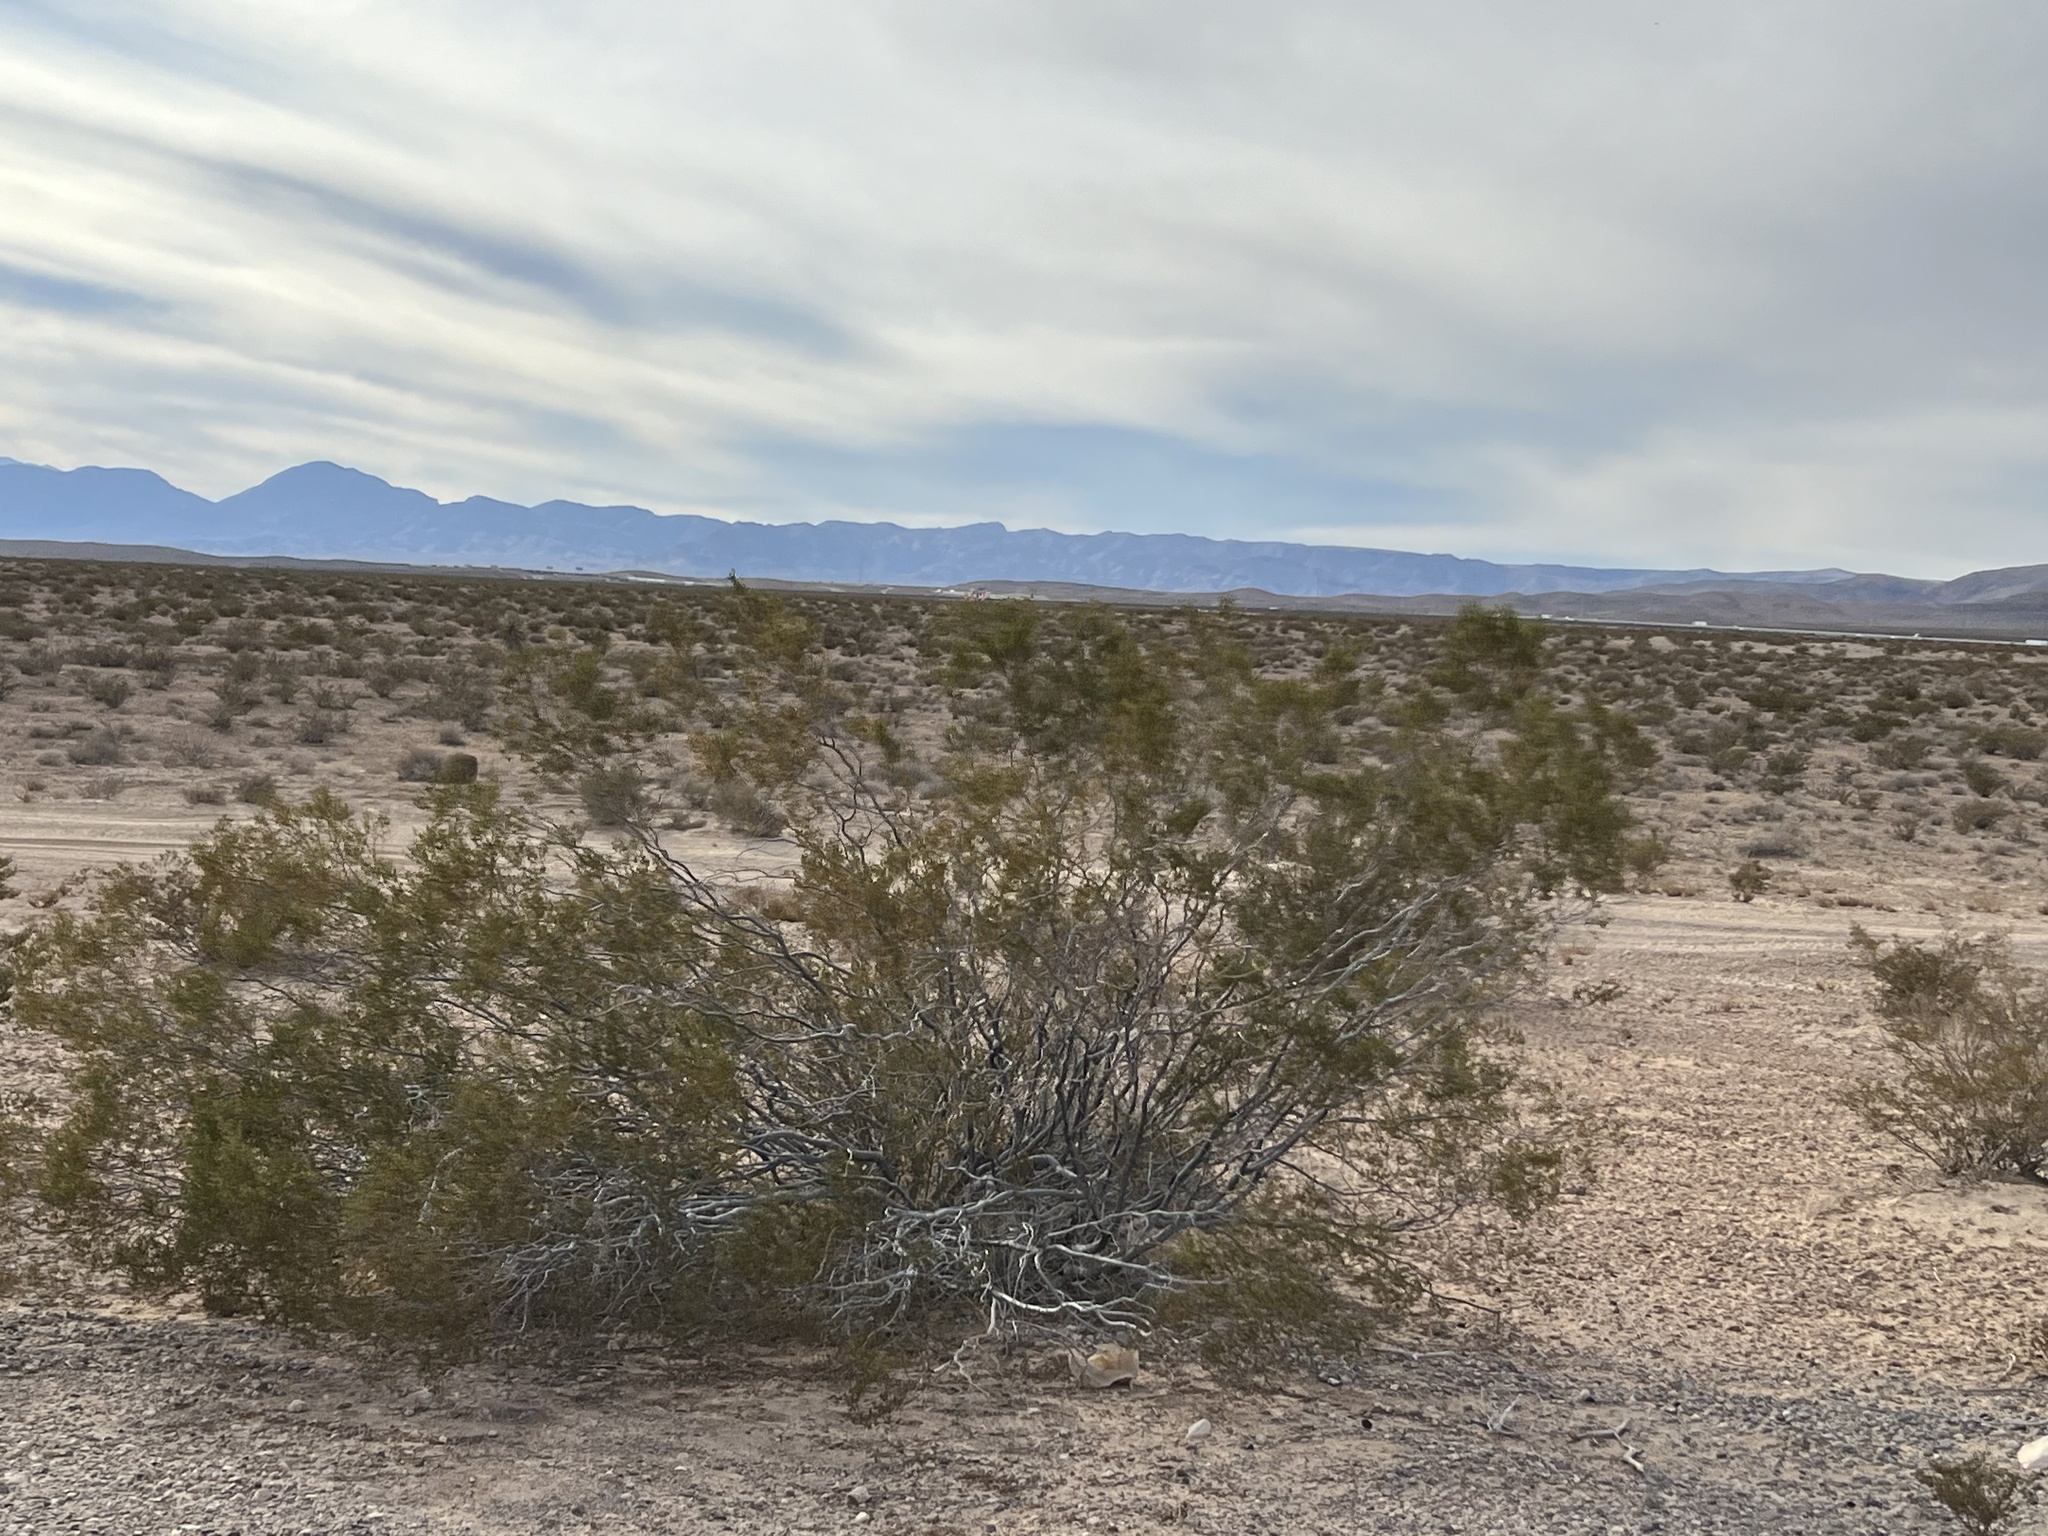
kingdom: Plantae
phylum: Tracheophyta
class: Magnoliopsida
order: Zygophyllales
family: Zygophyllaceae
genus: Larrea
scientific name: Larrea tridentata
